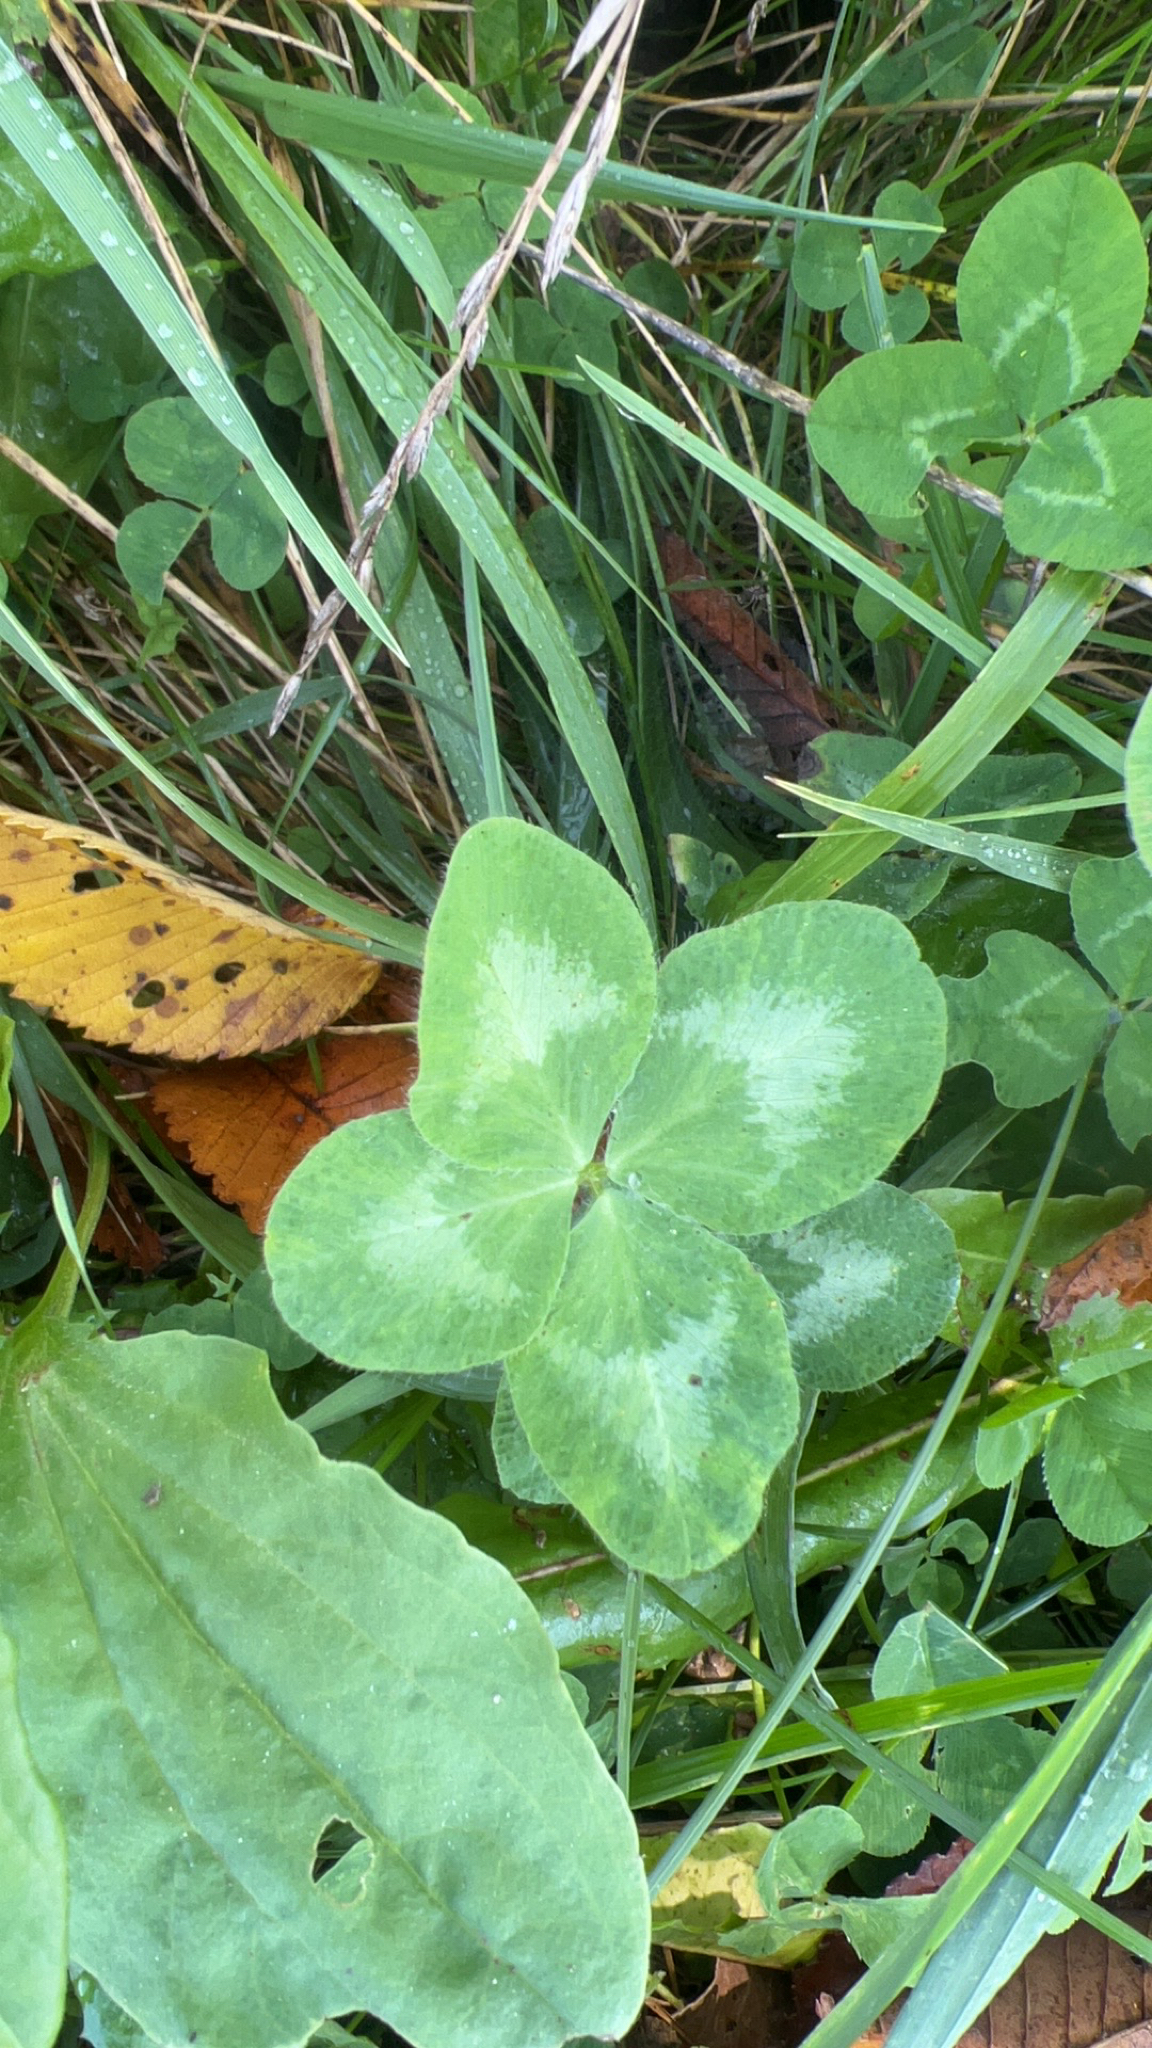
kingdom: Plantae
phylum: Tracheophyta
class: Magnoliopsida
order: Fabales
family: Fabaceae
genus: Trifolium
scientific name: Trifolium pratense
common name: Red clover
